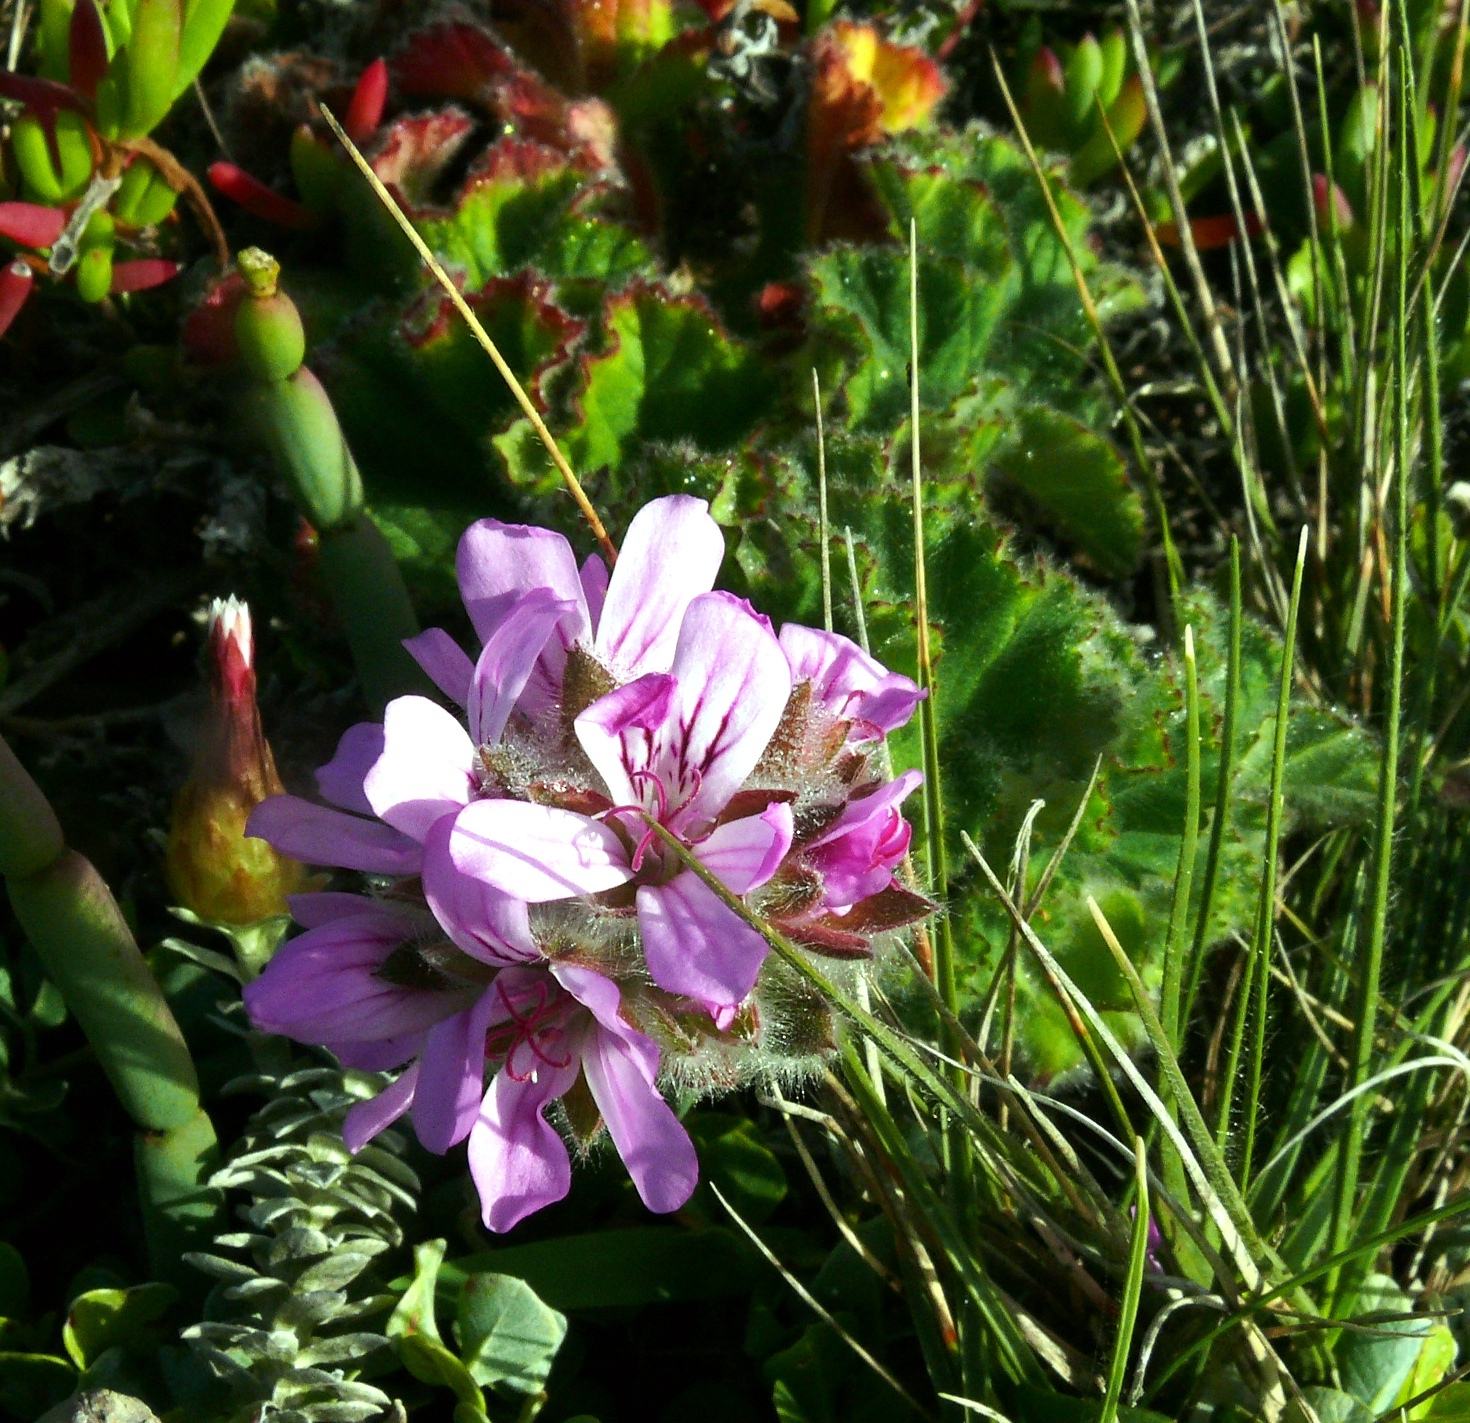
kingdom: Plantae
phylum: Tracheophyta
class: Magnoliopsida
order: Geraniales
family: Geraniaceae
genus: Pelargonium
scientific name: Pelargonium capitatum
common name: Rose scented geranium
